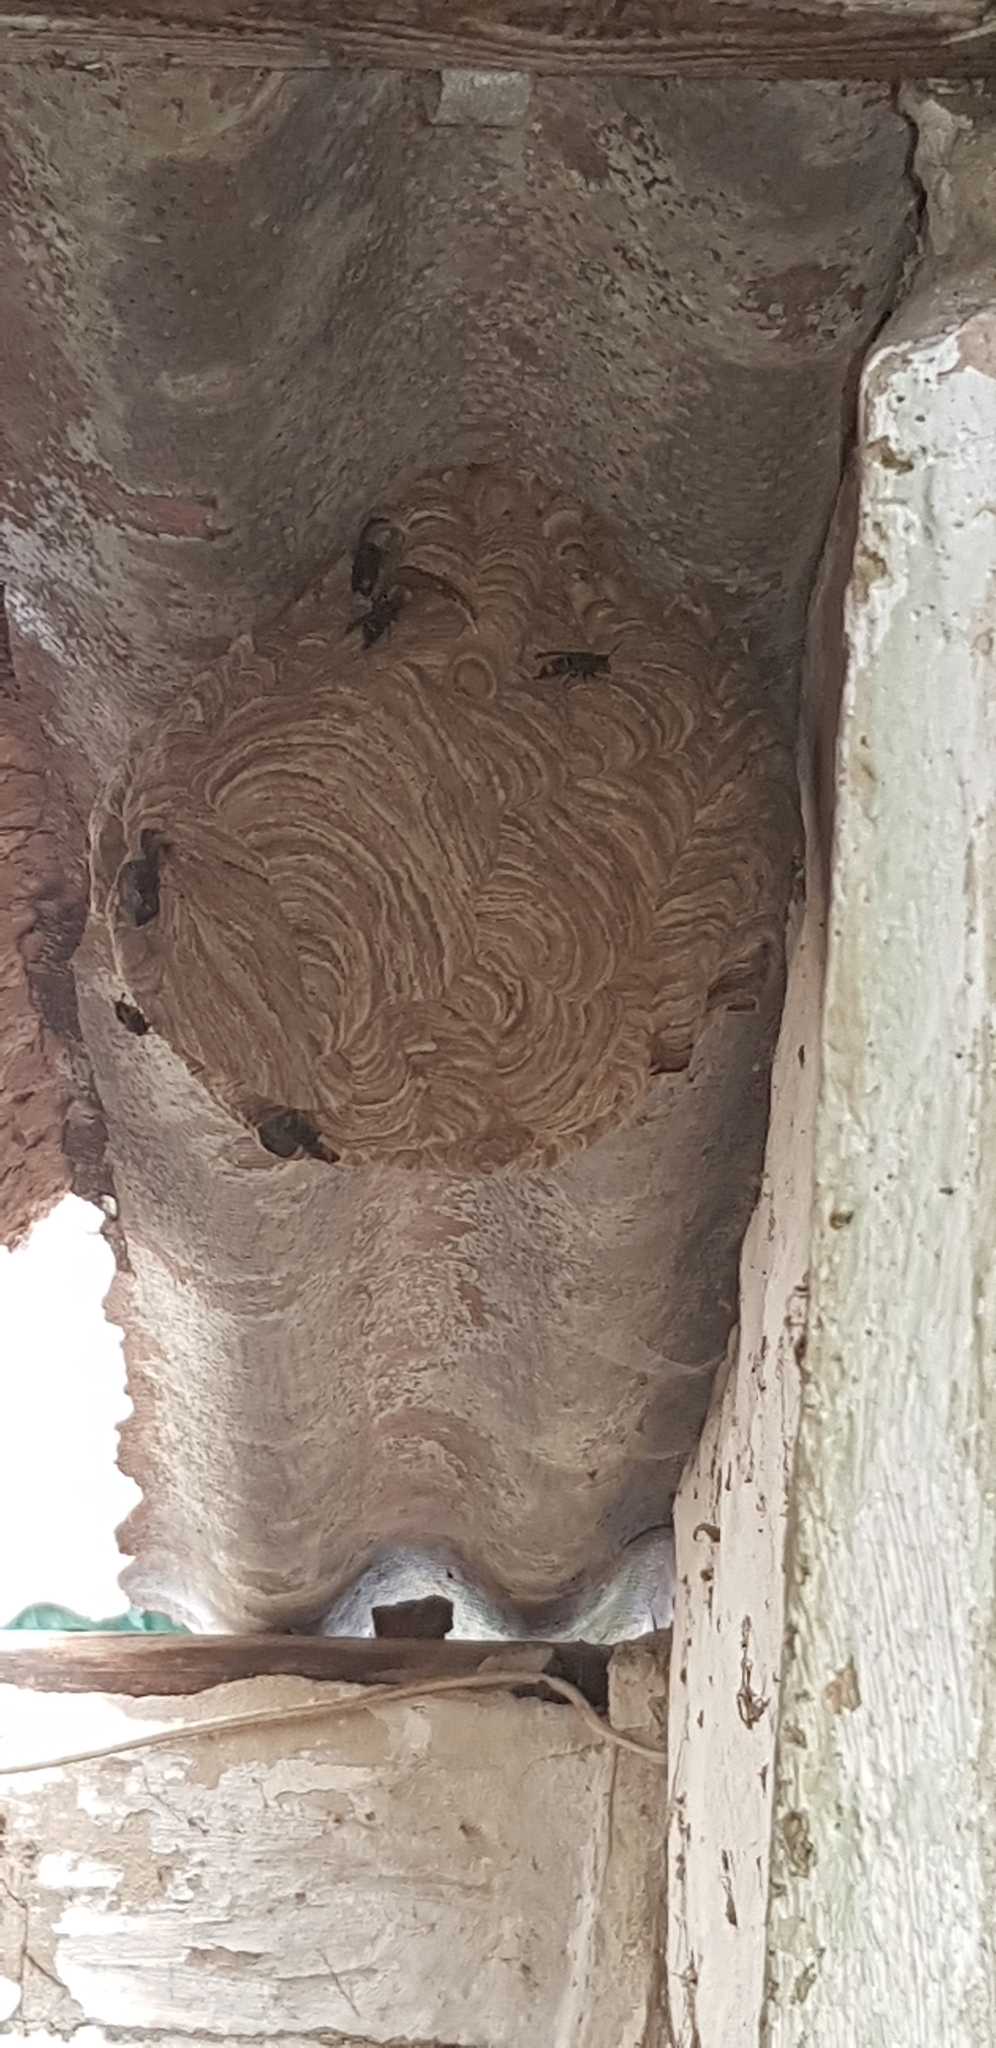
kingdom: Animalia
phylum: Arthropoda
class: Insecta
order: Hymenoptera
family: Vespidae
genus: Vespa
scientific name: Vespa velutina
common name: Asian hornet
